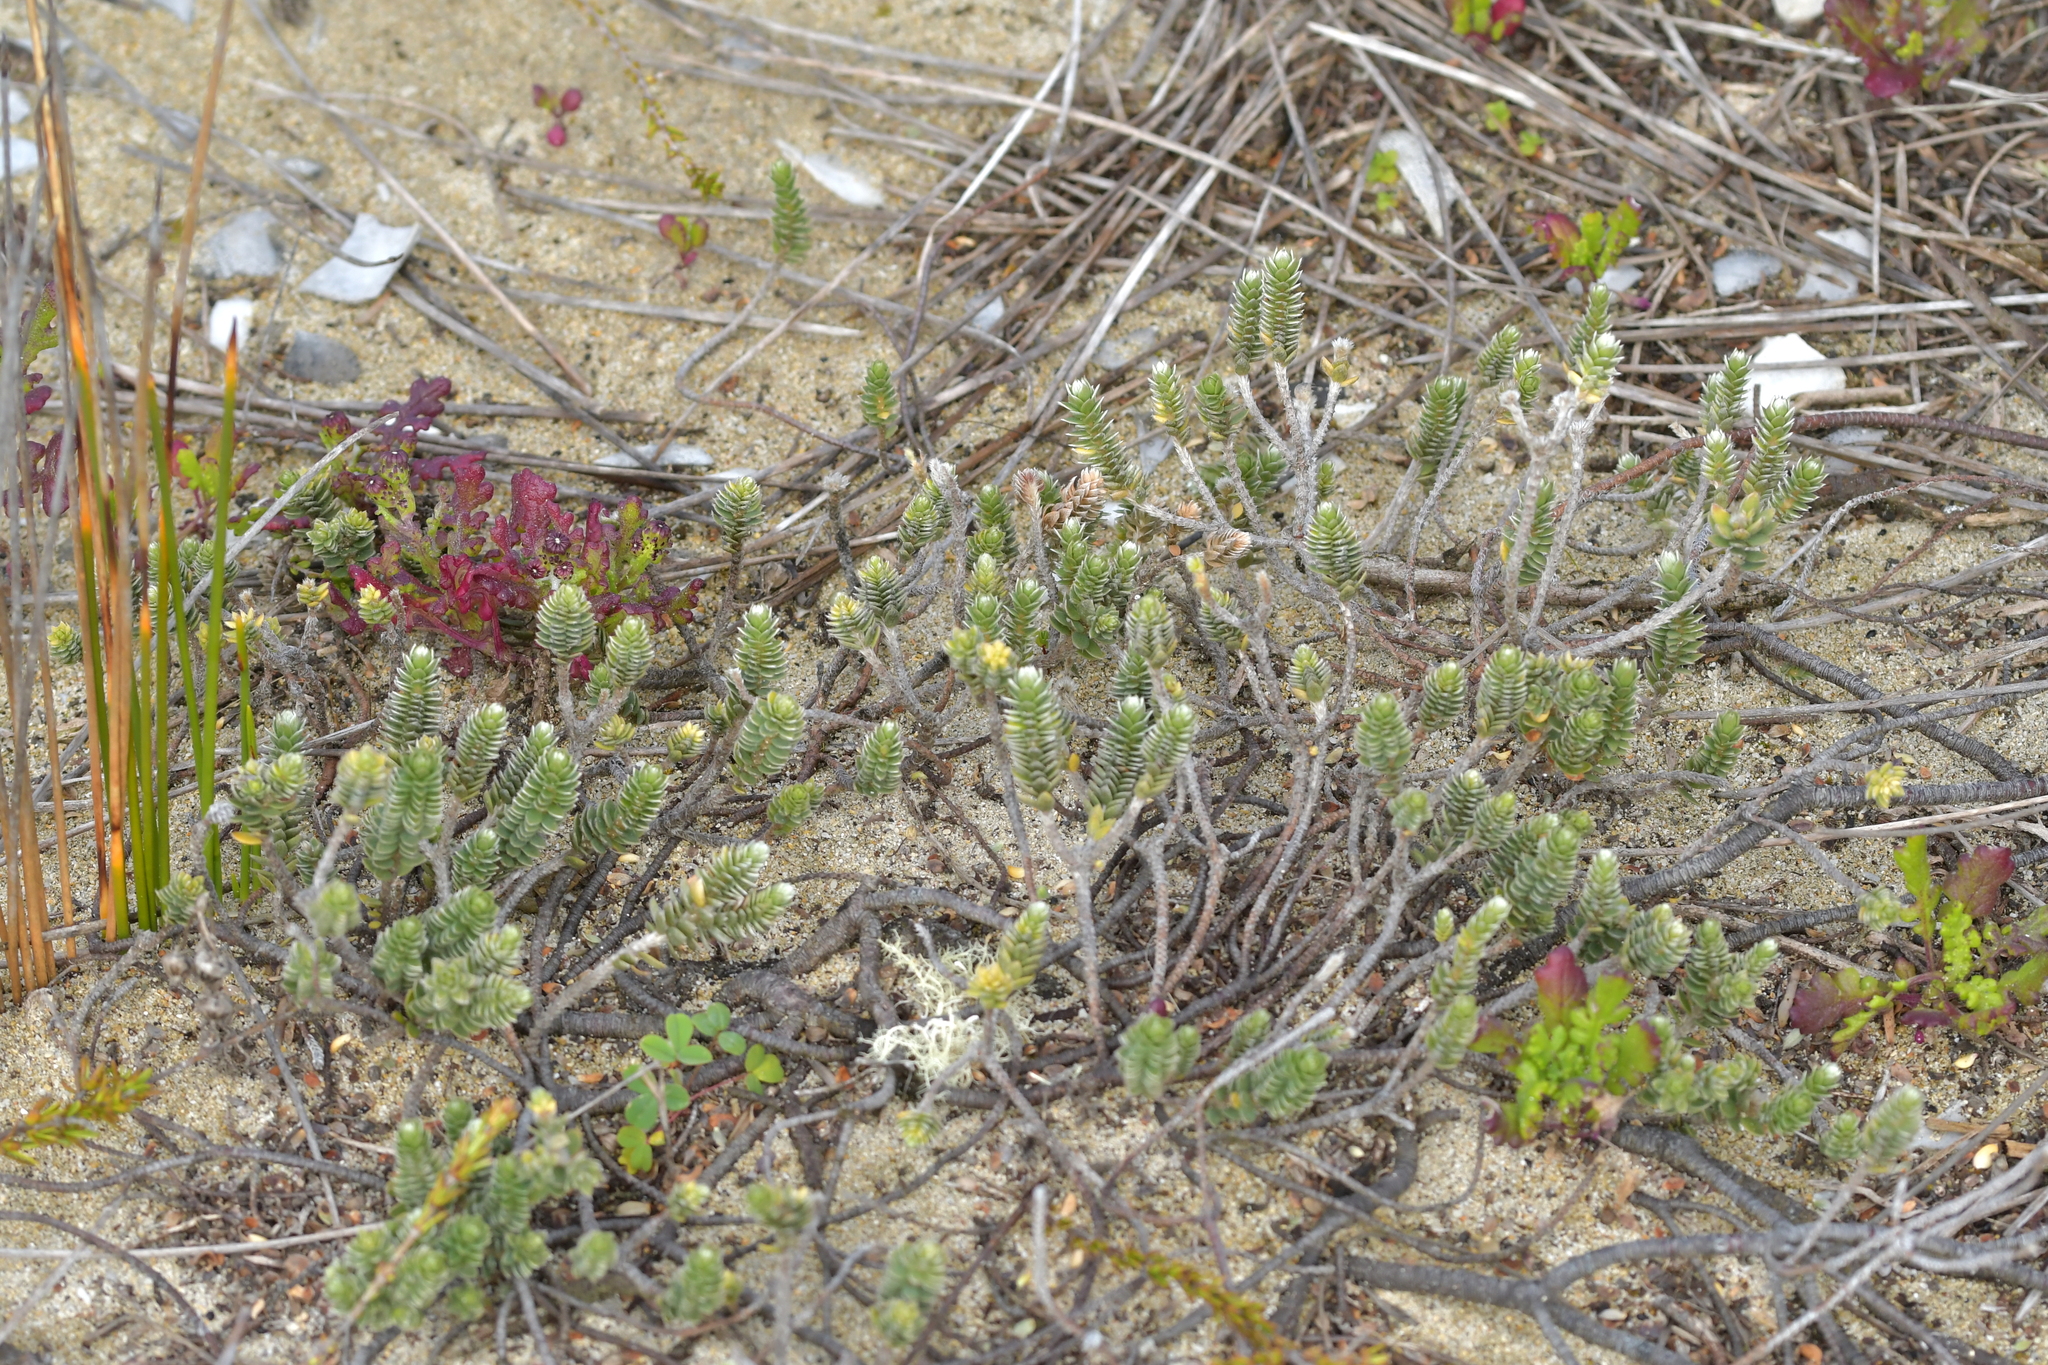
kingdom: Plantae
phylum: Tracheophyta
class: Magnoliopsida
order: Malvales
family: Thymelaeaceae
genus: Pimelea
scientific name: Pimelea villosa
